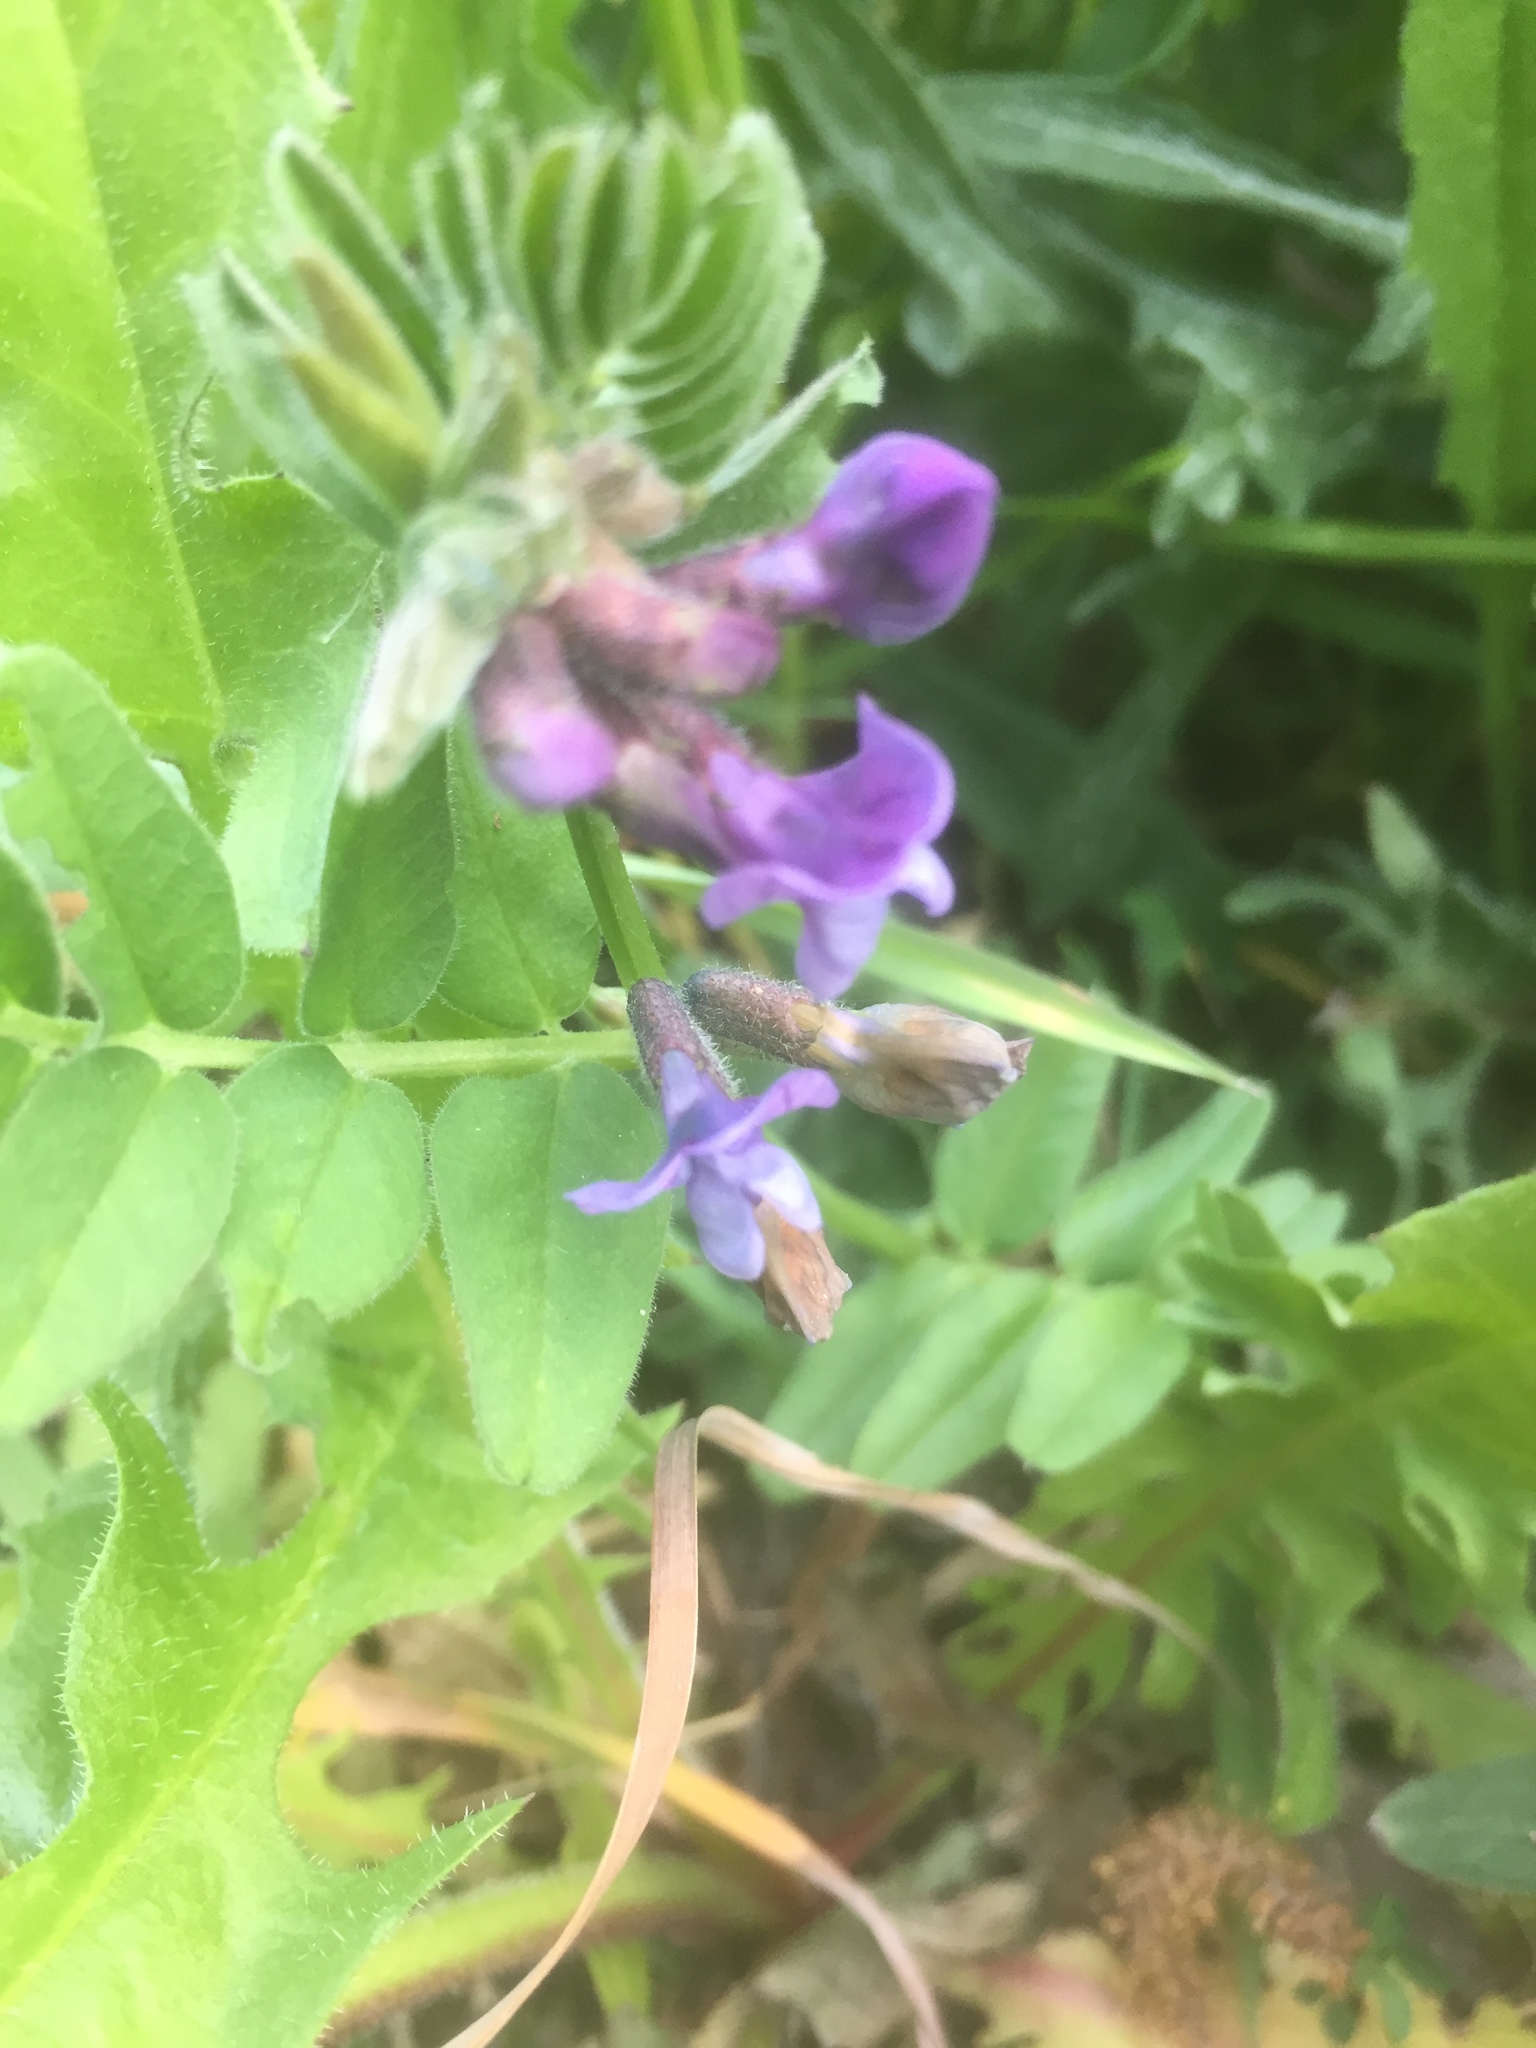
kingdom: Plantae
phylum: Tracheophyta
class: Magnoliopsida
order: Fabales
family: Fabaceae
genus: Vicia
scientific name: Vicia sepium
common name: Bush vetch
